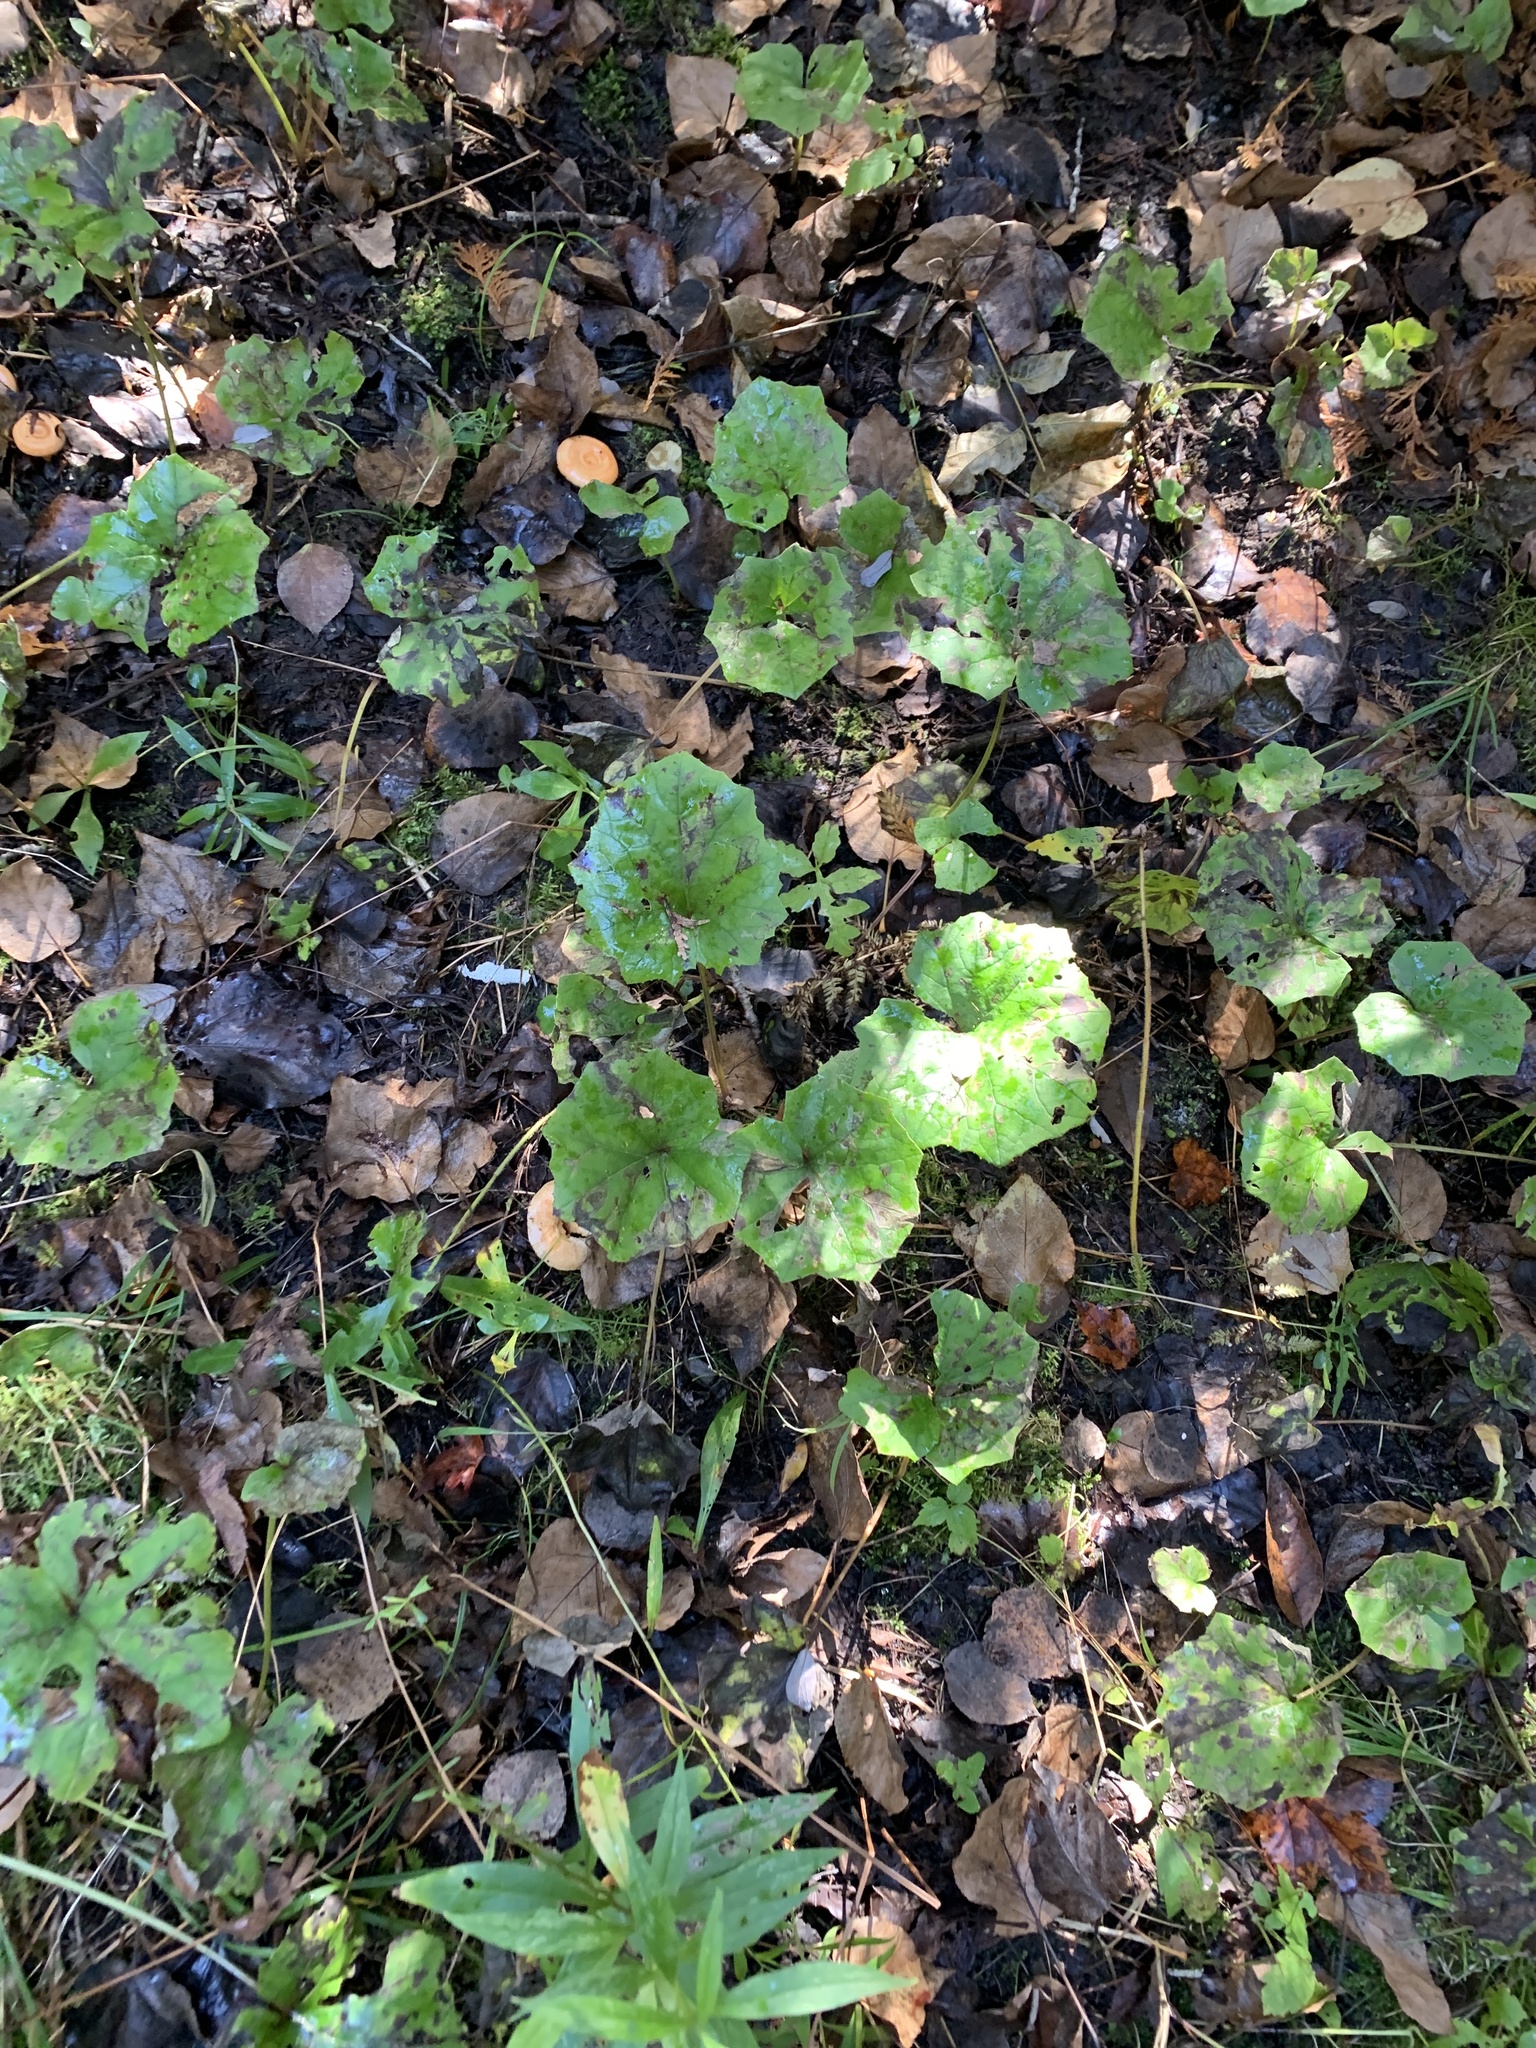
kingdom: Plantae
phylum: Tracheophyta
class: Magnoliopsida
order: Asterales
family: Asteraceae
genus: Tussilago
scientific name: Tussilago farfara
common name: Coltsfoot
